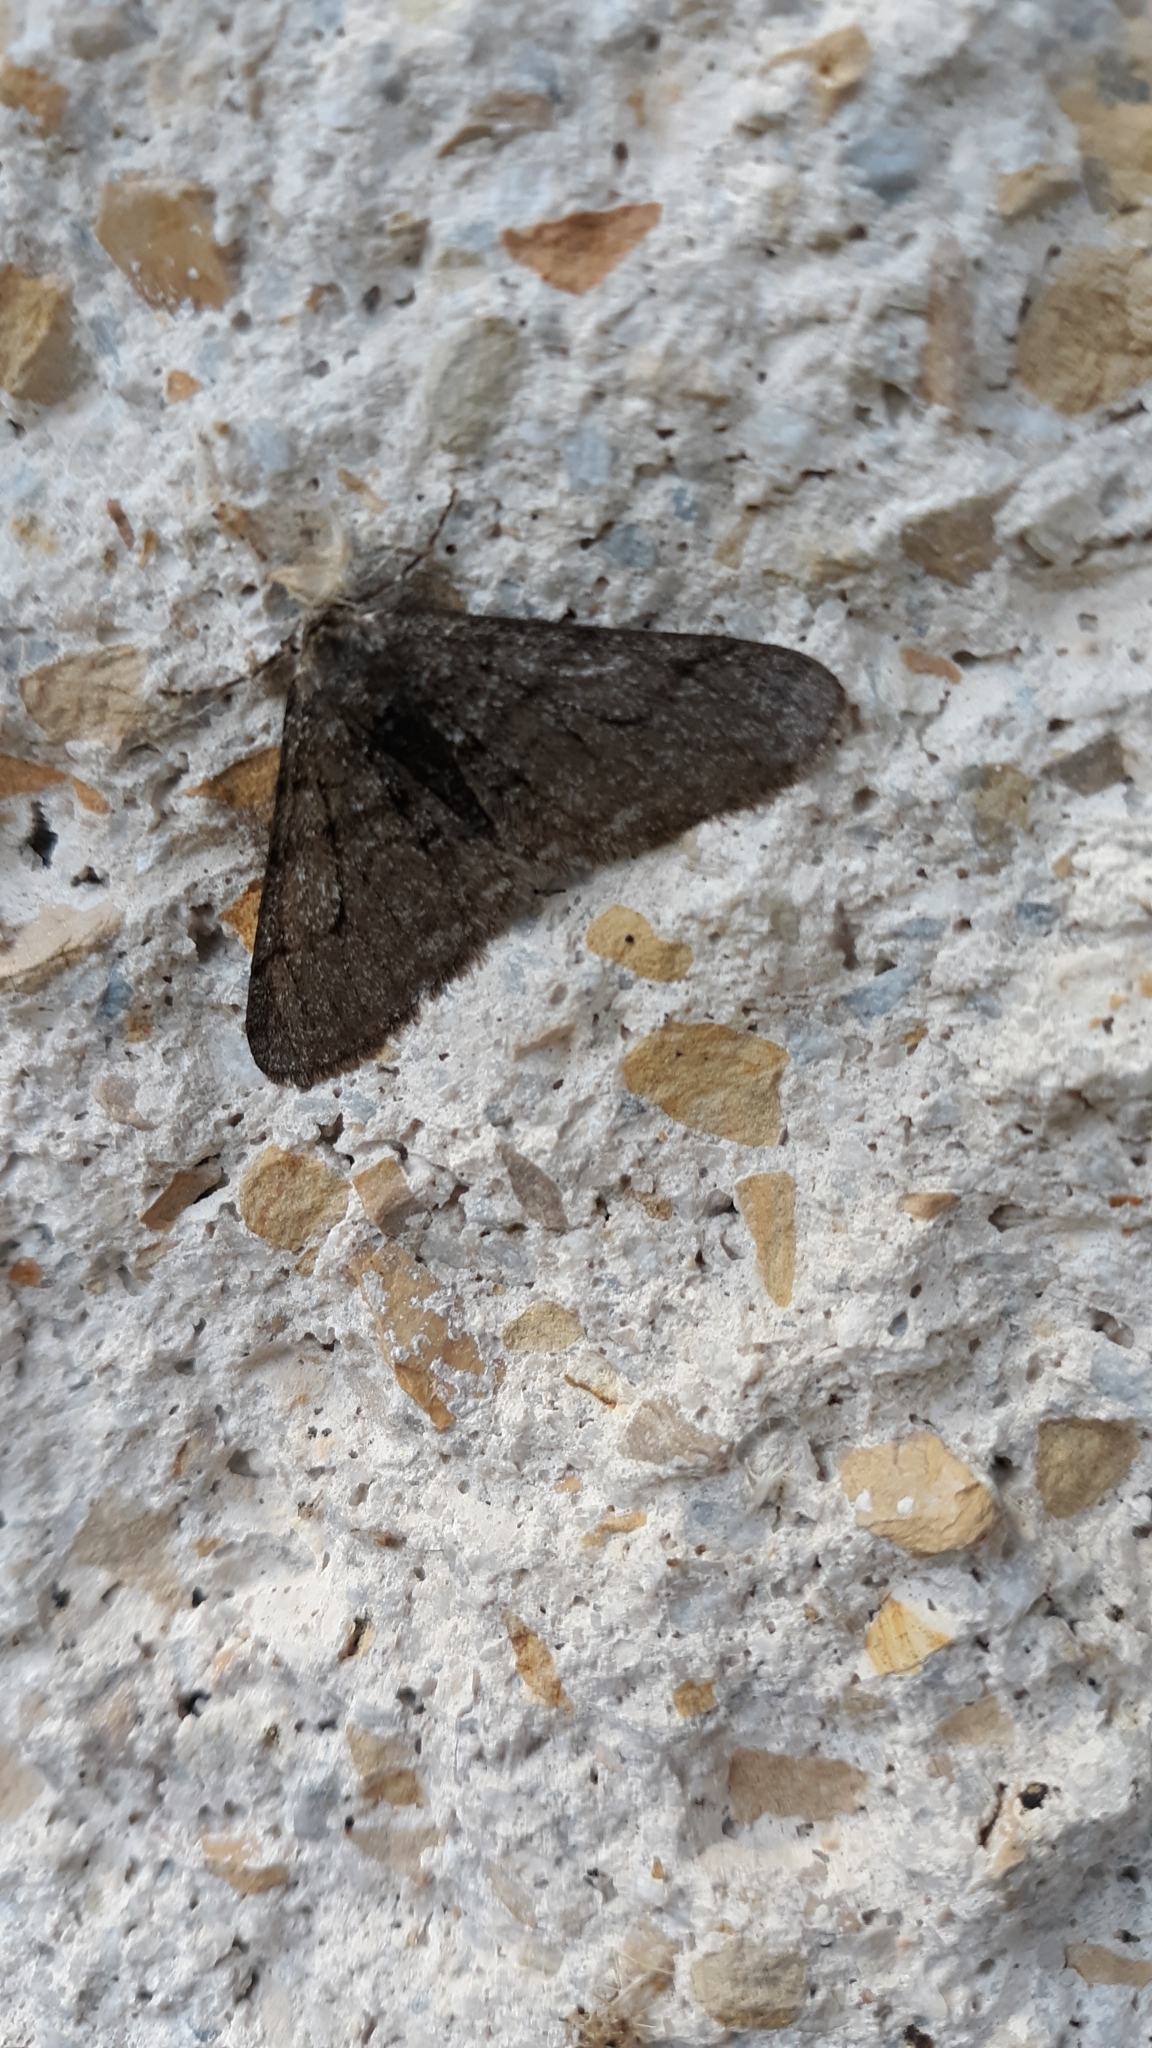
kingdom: Animalia
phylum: Arthropoda
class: Insecta
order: Lepidoptera
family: Geometridae
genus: Phigalia
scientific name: Phigalia titea
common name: Spiny looper
